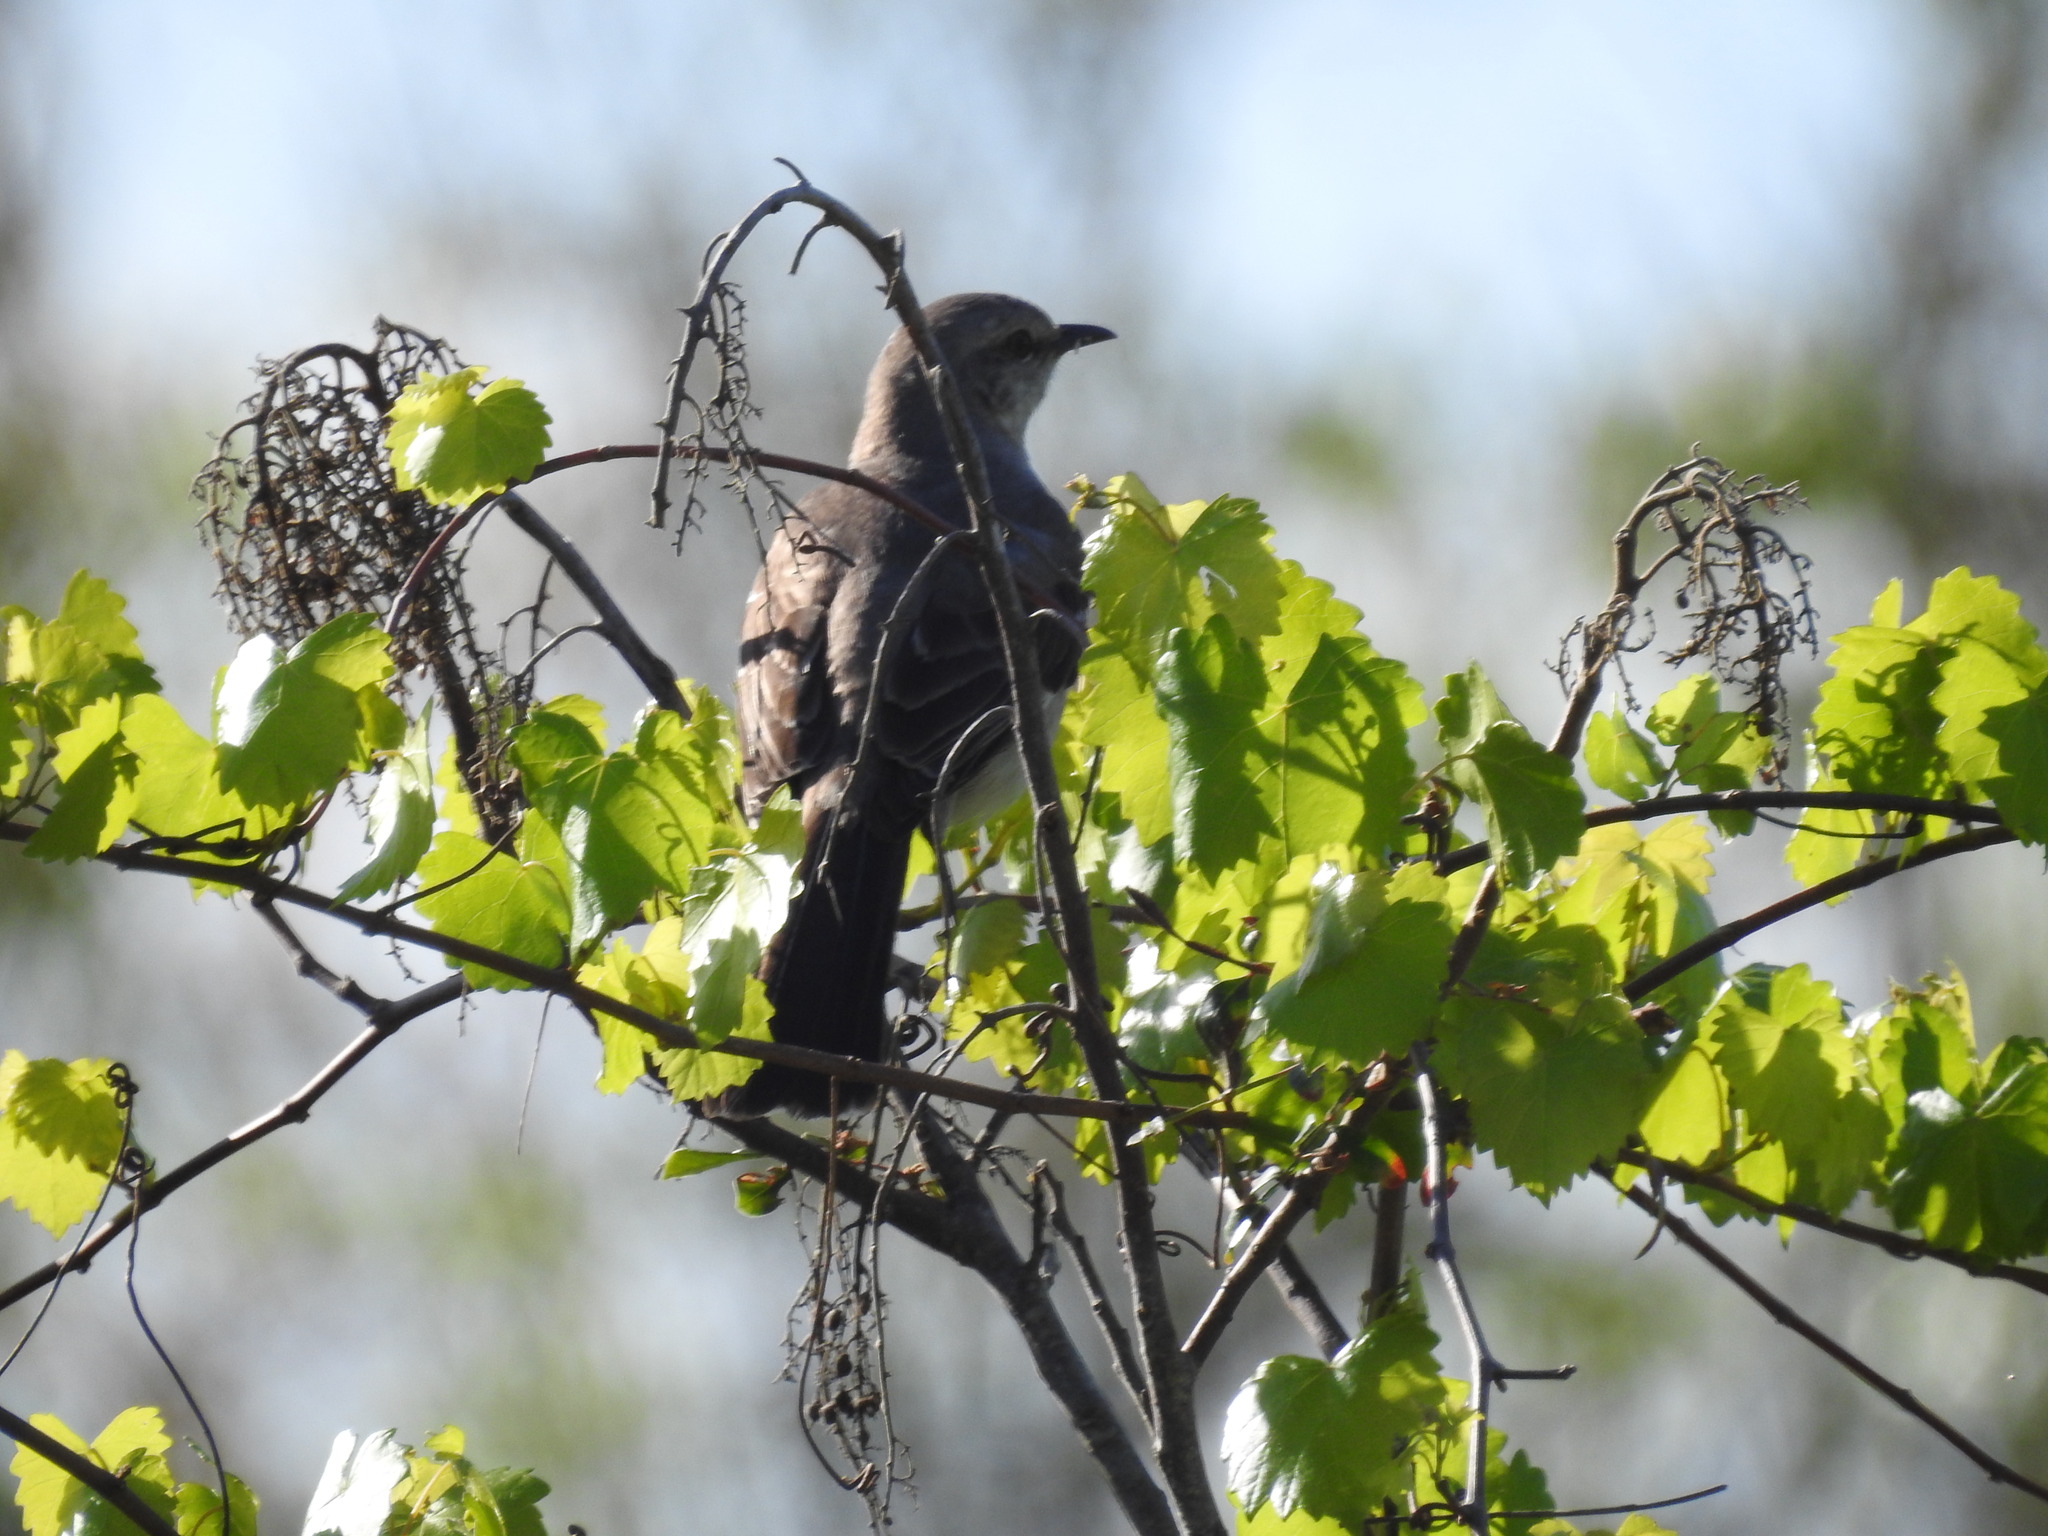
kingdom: Animalia
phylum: Chordata
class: Aves
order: Passeriformes
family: Mimidae
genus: Mimus
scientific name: Mimus polyglottos
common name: Northern mockingbird
